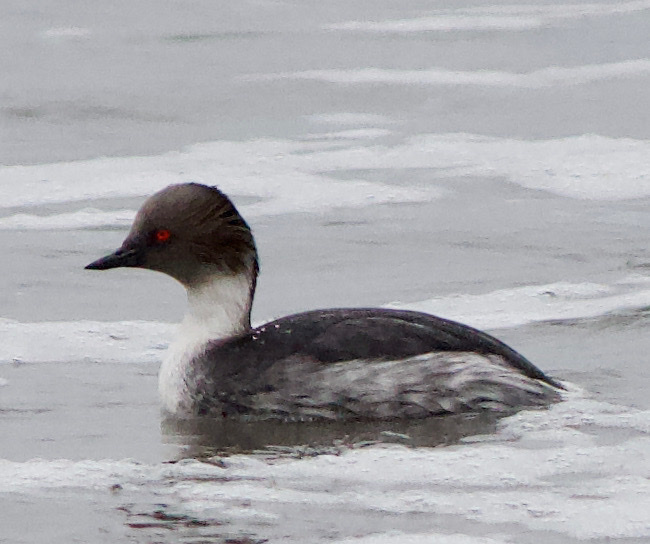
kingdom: Animalia
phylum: Chordata
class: Aves
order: Podicipediformes
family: Podicipedidae
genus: Podiceps
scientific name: Podiceps occipitalis
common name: Silvery grebe
